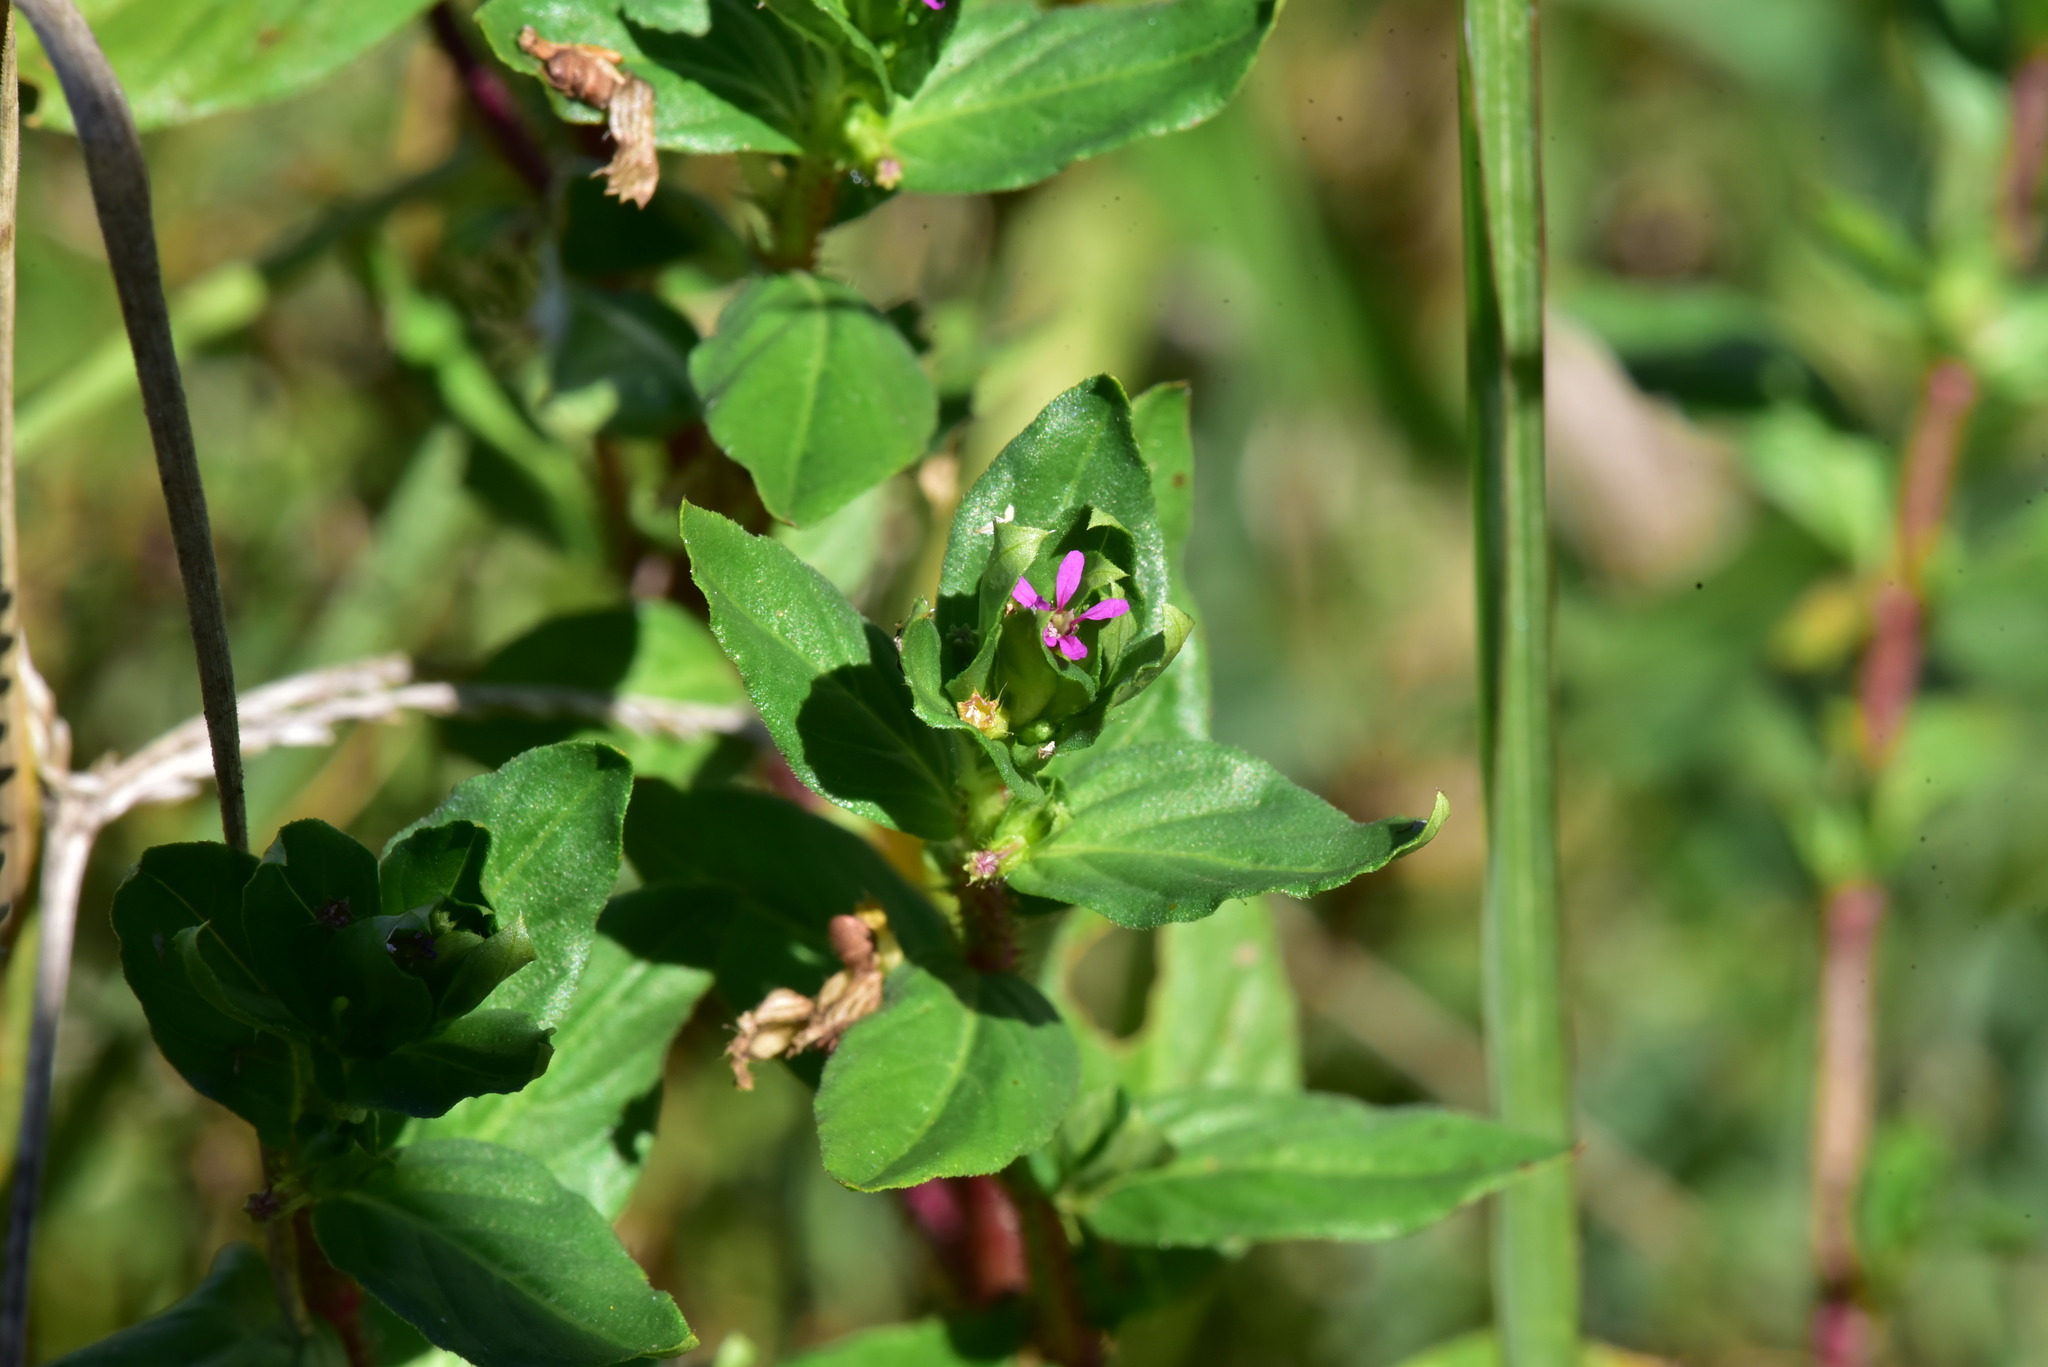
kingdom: Plantae
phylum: Tracheophyta
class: Magnoliopsida
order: Myrtales
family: Lythraceae
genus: Cuphea
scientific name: Cuphea carthagenensis
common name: Colombian waxweed
